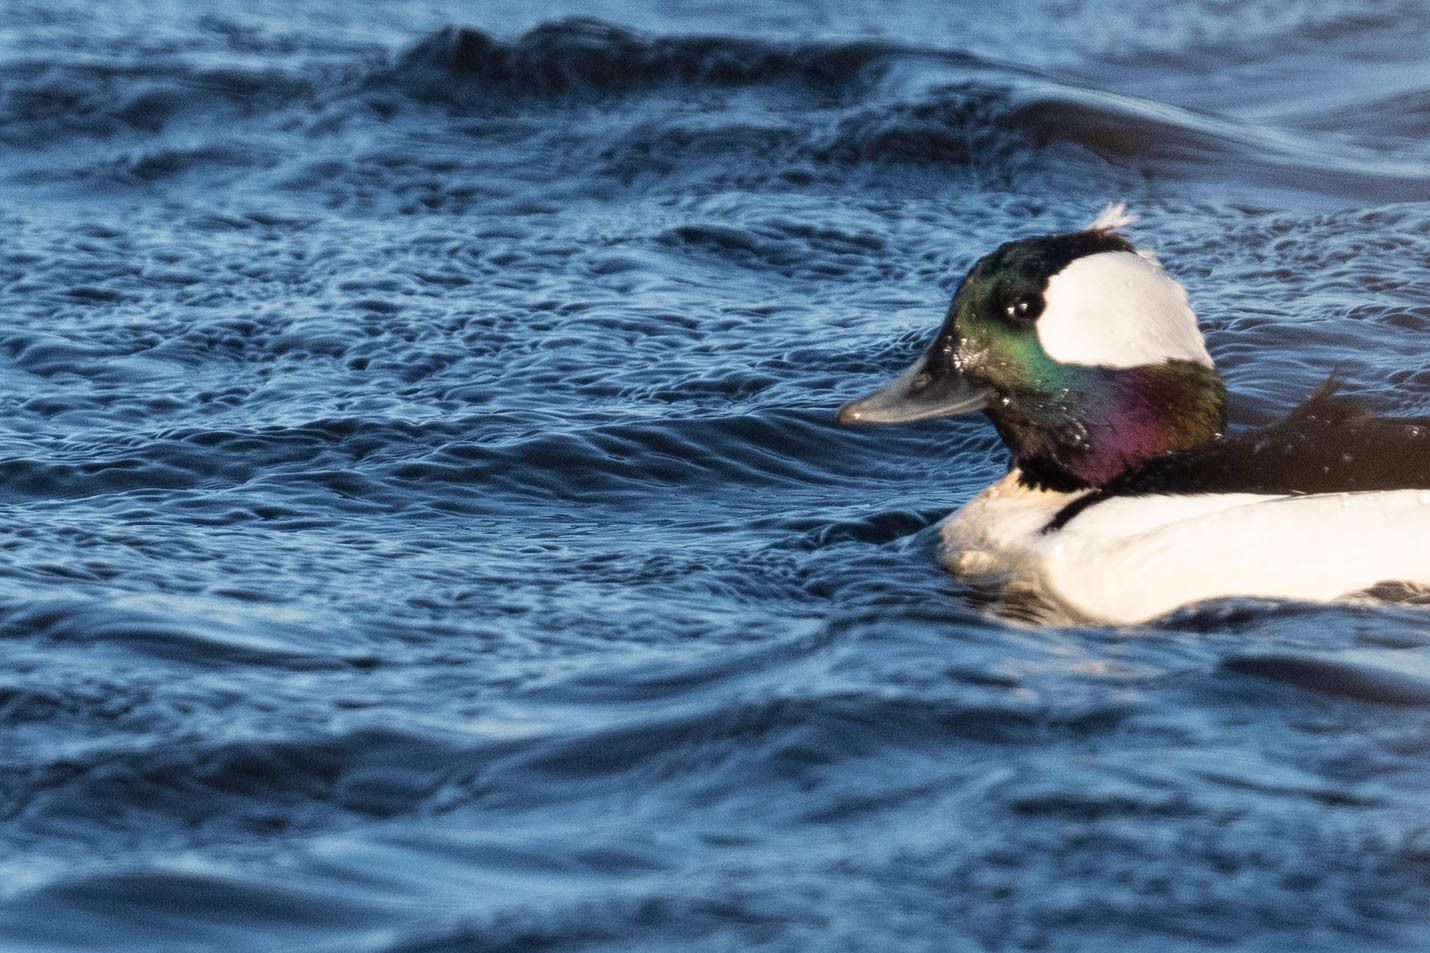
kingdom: Animalia
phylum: Chordata
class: Aves
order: Anseriformes
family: Anatidae
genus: Bucephala
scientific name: Bucephala albeola
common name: Bufflehead
